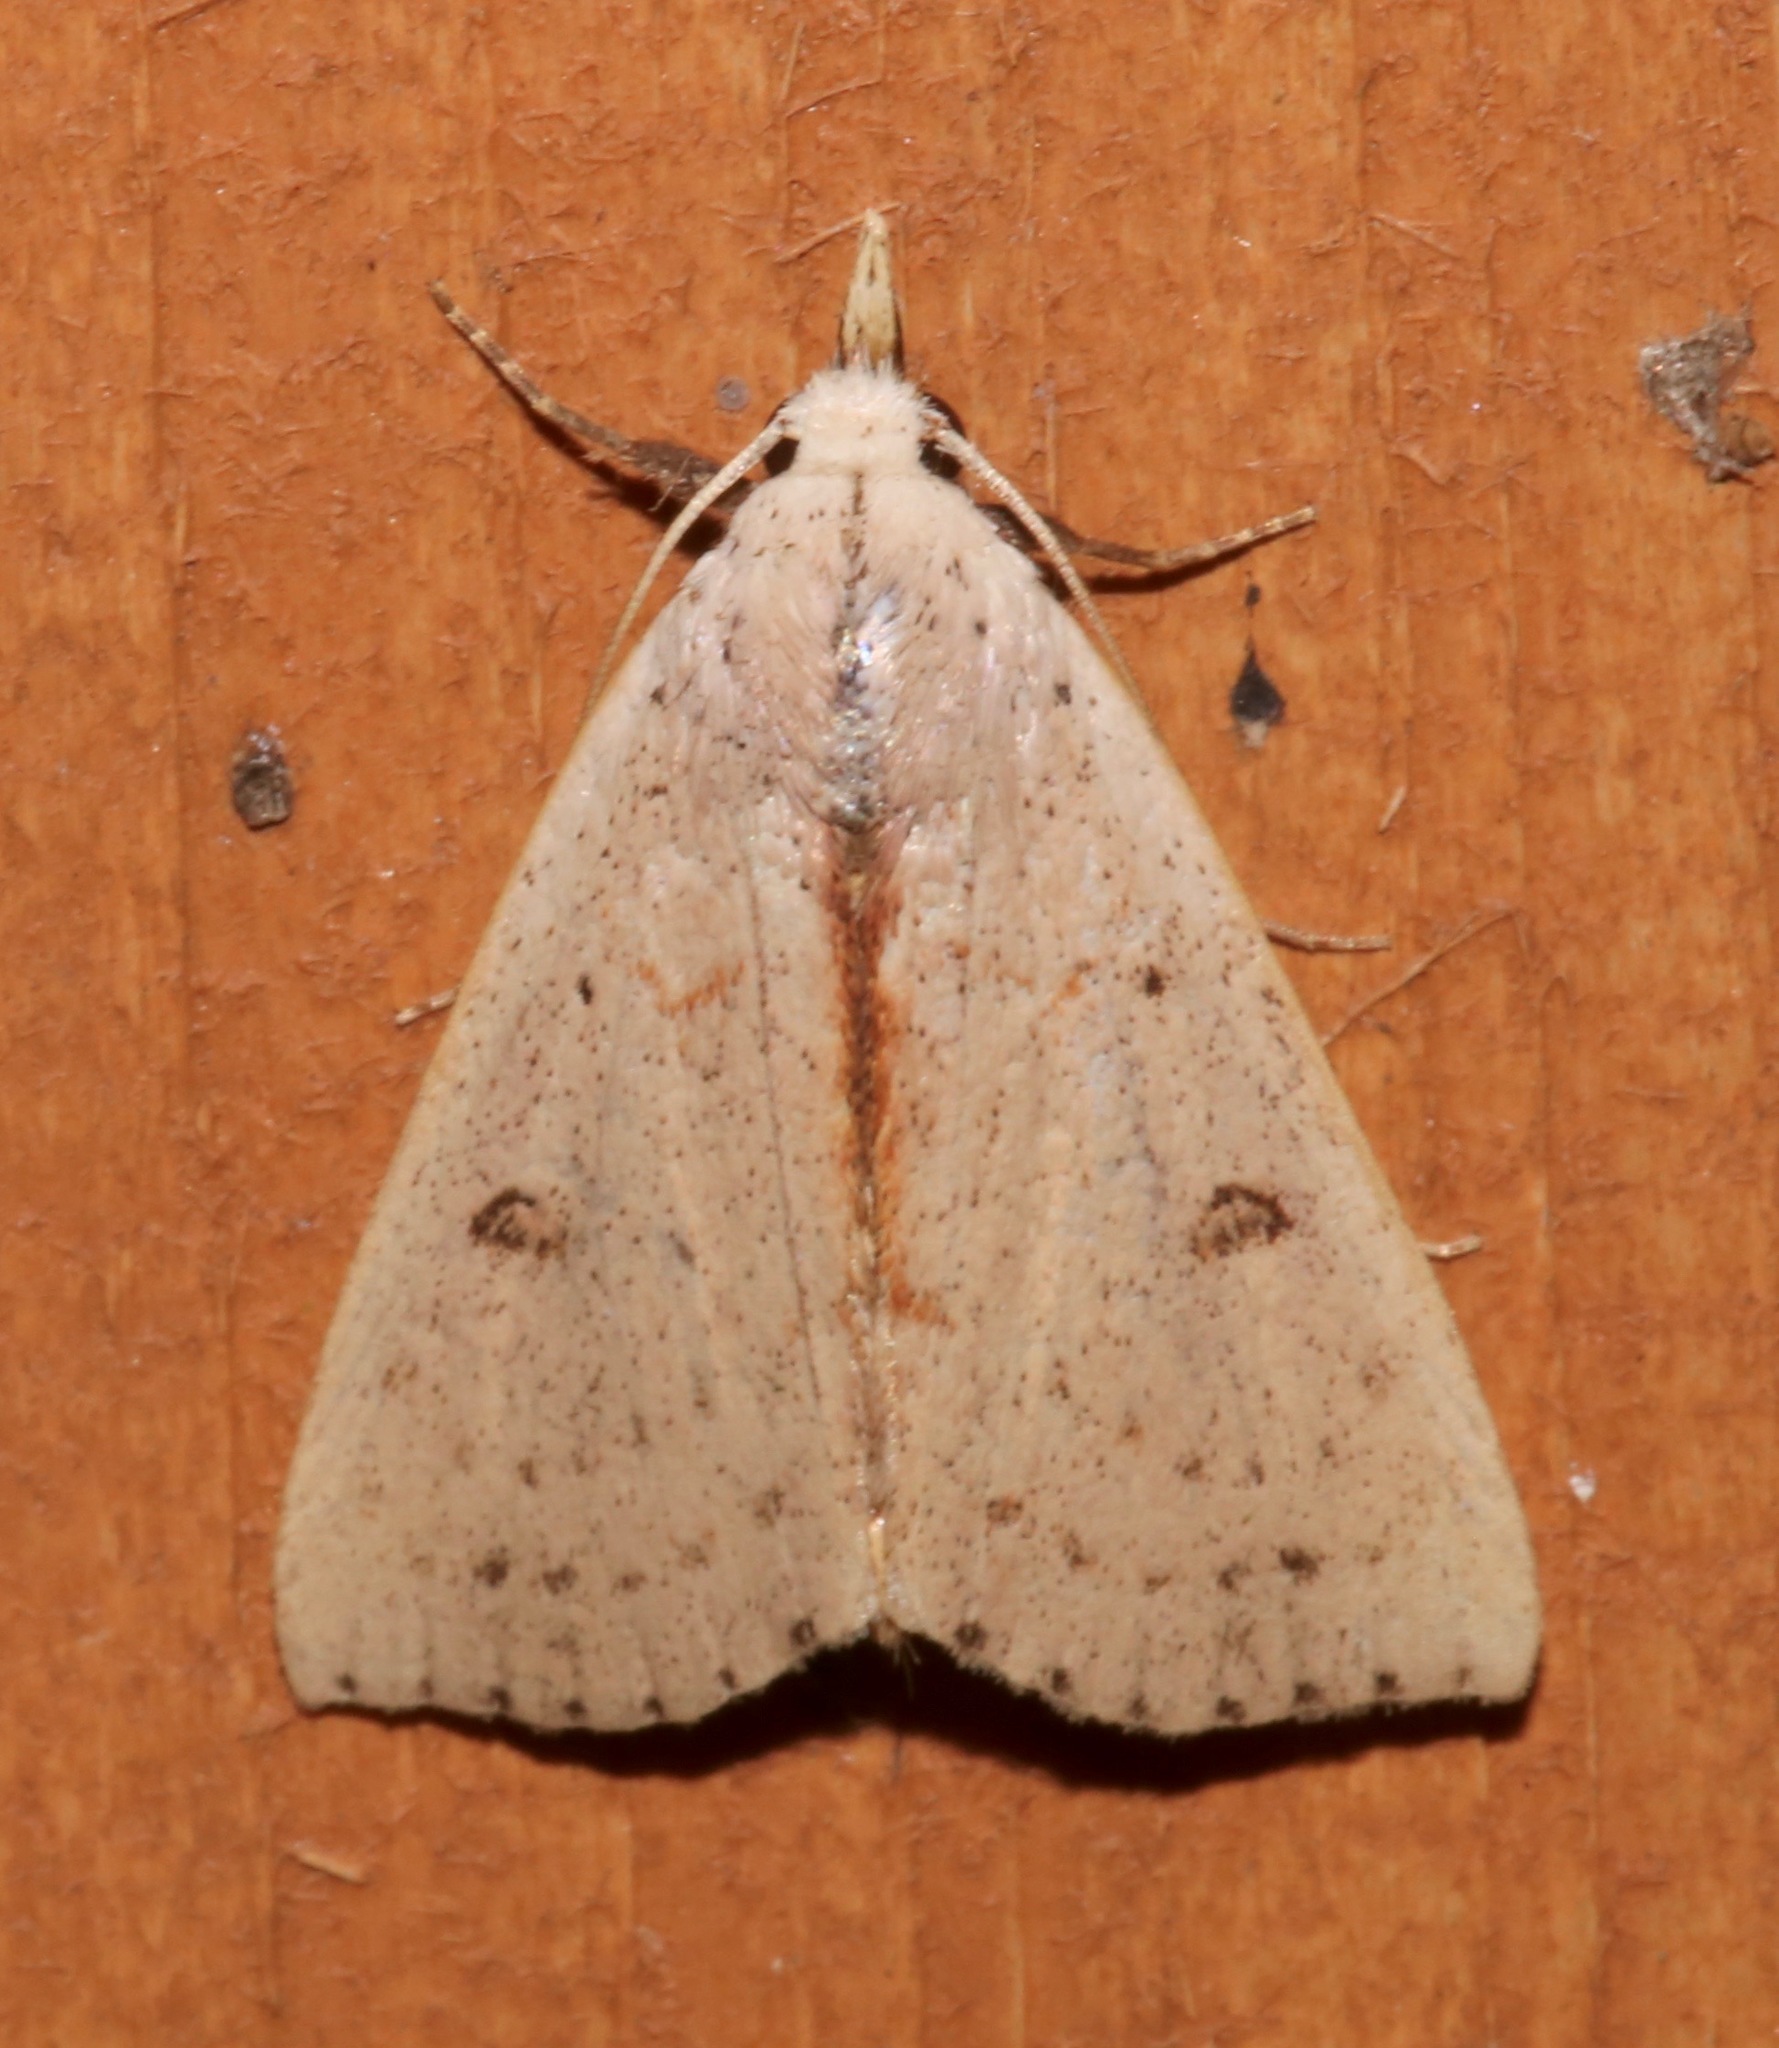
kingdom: Animalia
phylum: Arthropoda
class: Insecta
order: Lepidoptera
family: Erebidae
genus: Scolecocampa
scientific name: Scolecocampa liburna
